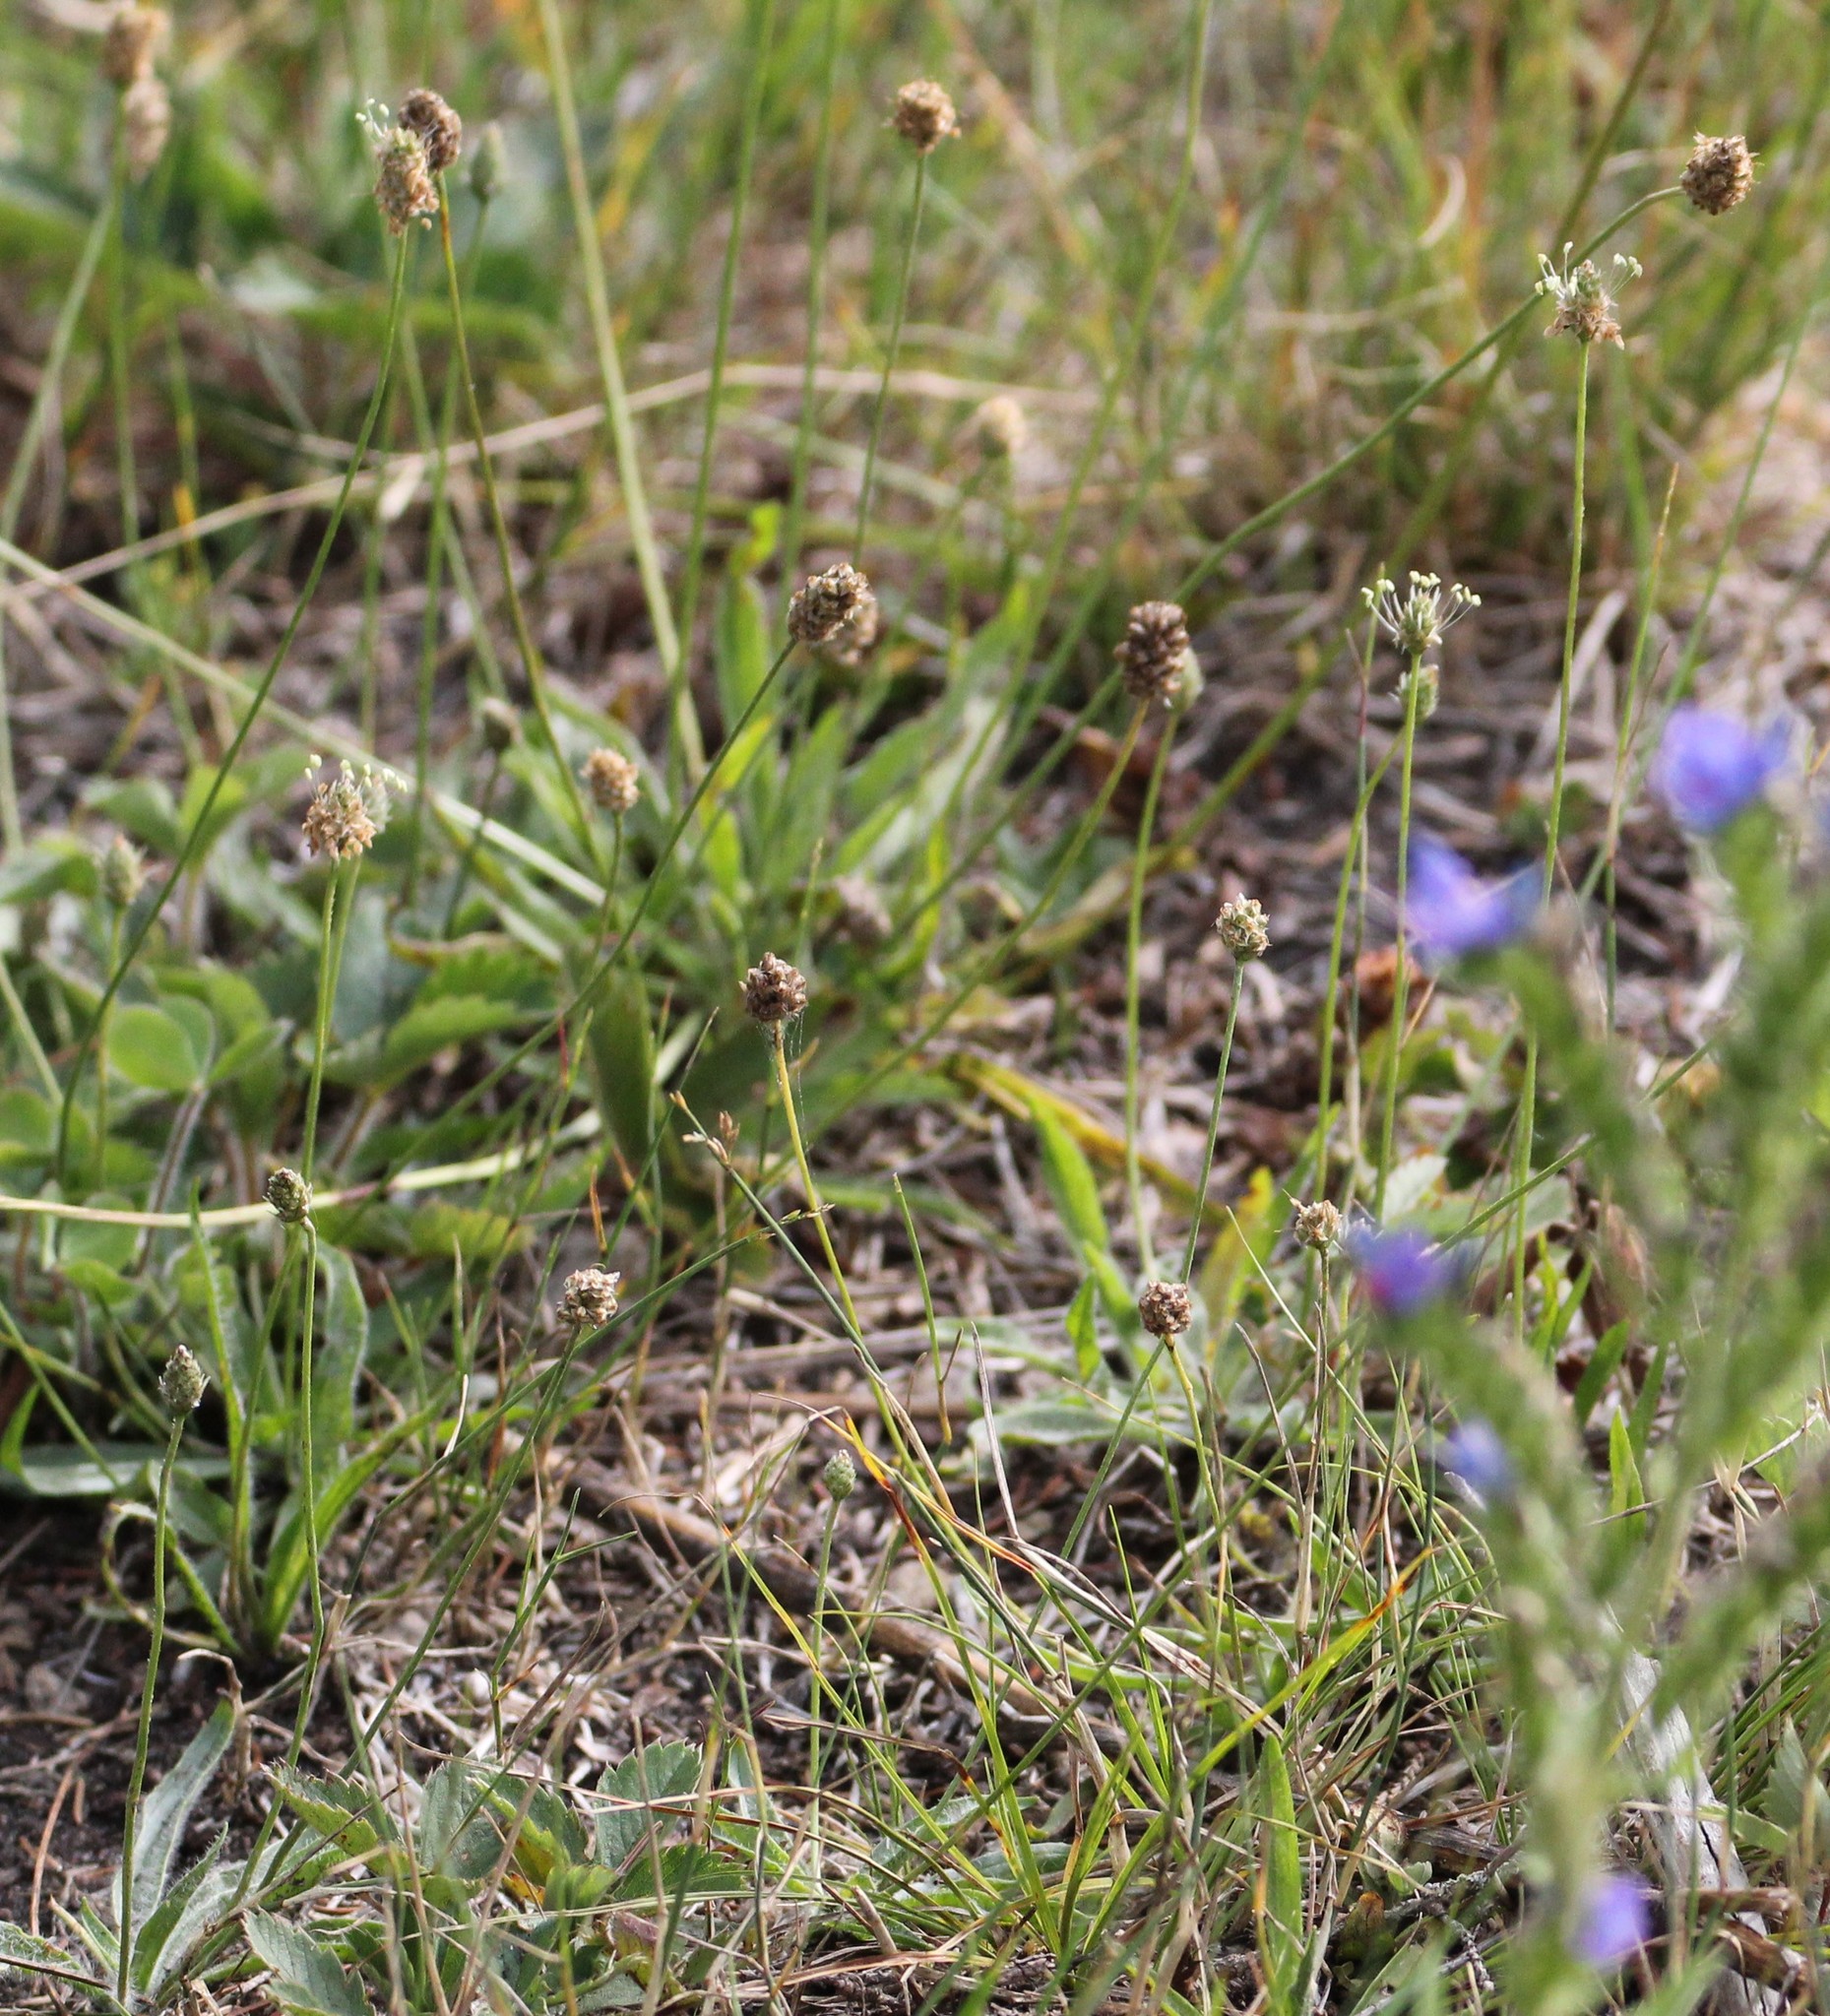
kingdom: Plantae
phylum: Tracheophyta
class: Magnoliopsida
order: Lamiales
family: Plantaginaceae
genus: Plantago
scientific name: Plantago lanceolata
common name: Ribwort plantain
